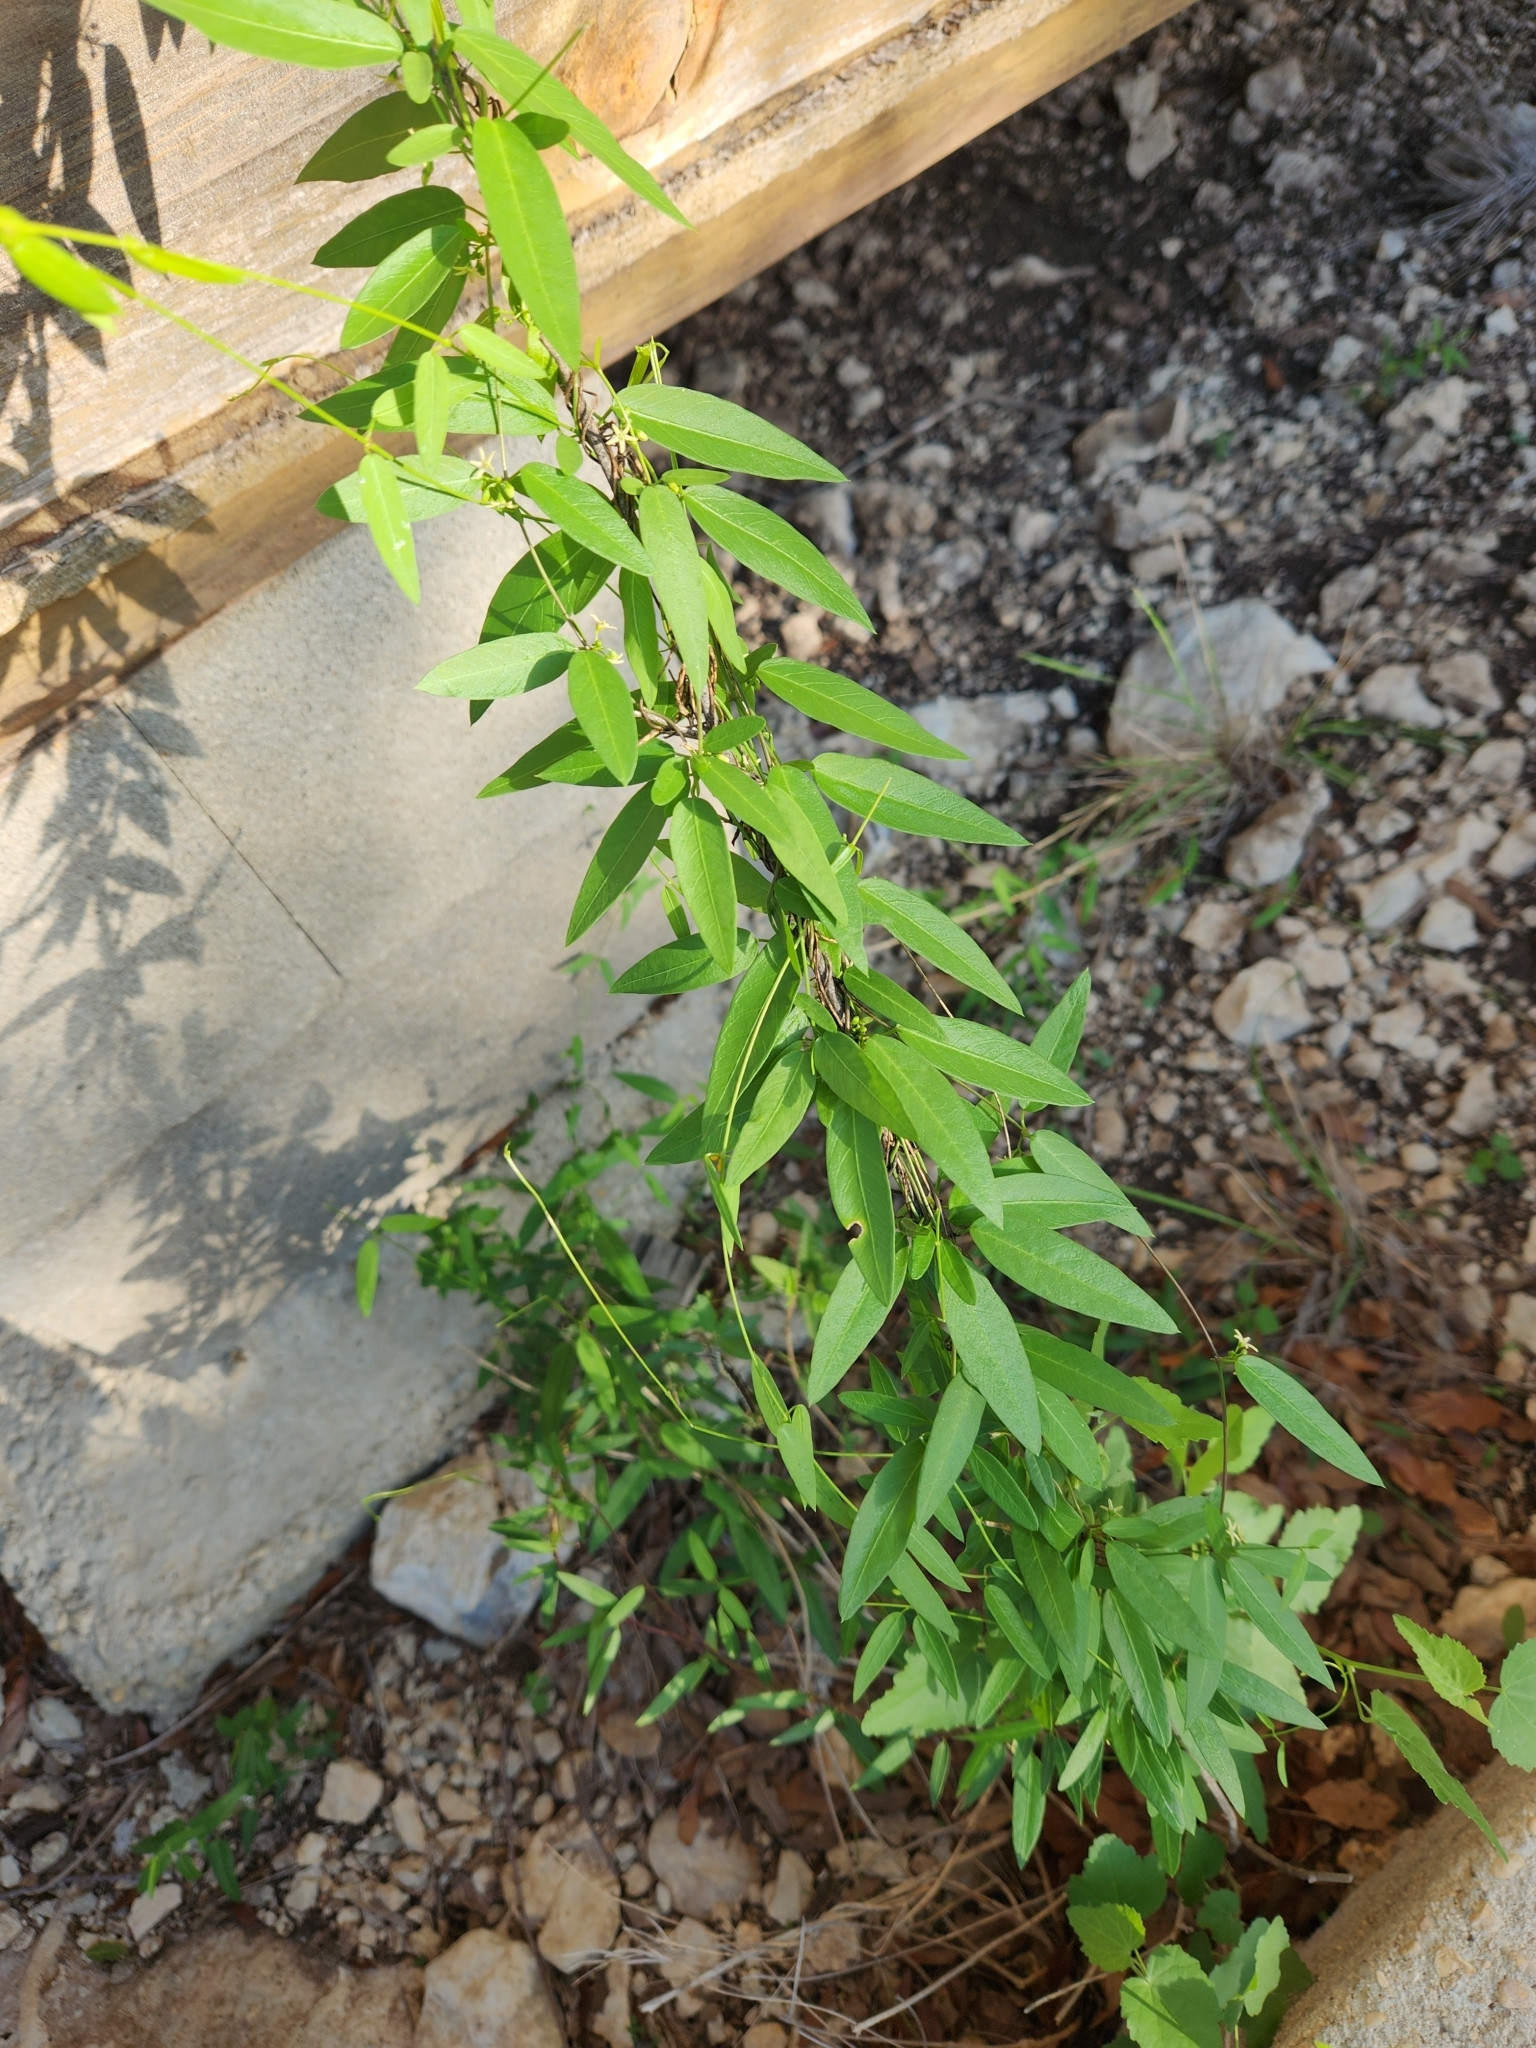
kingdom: Plantae
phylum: Tracheophyta
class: Magnoliopsida
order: Gentianales
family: Apocynaceae
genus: Metastelma
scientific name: Metastelma palmeri
